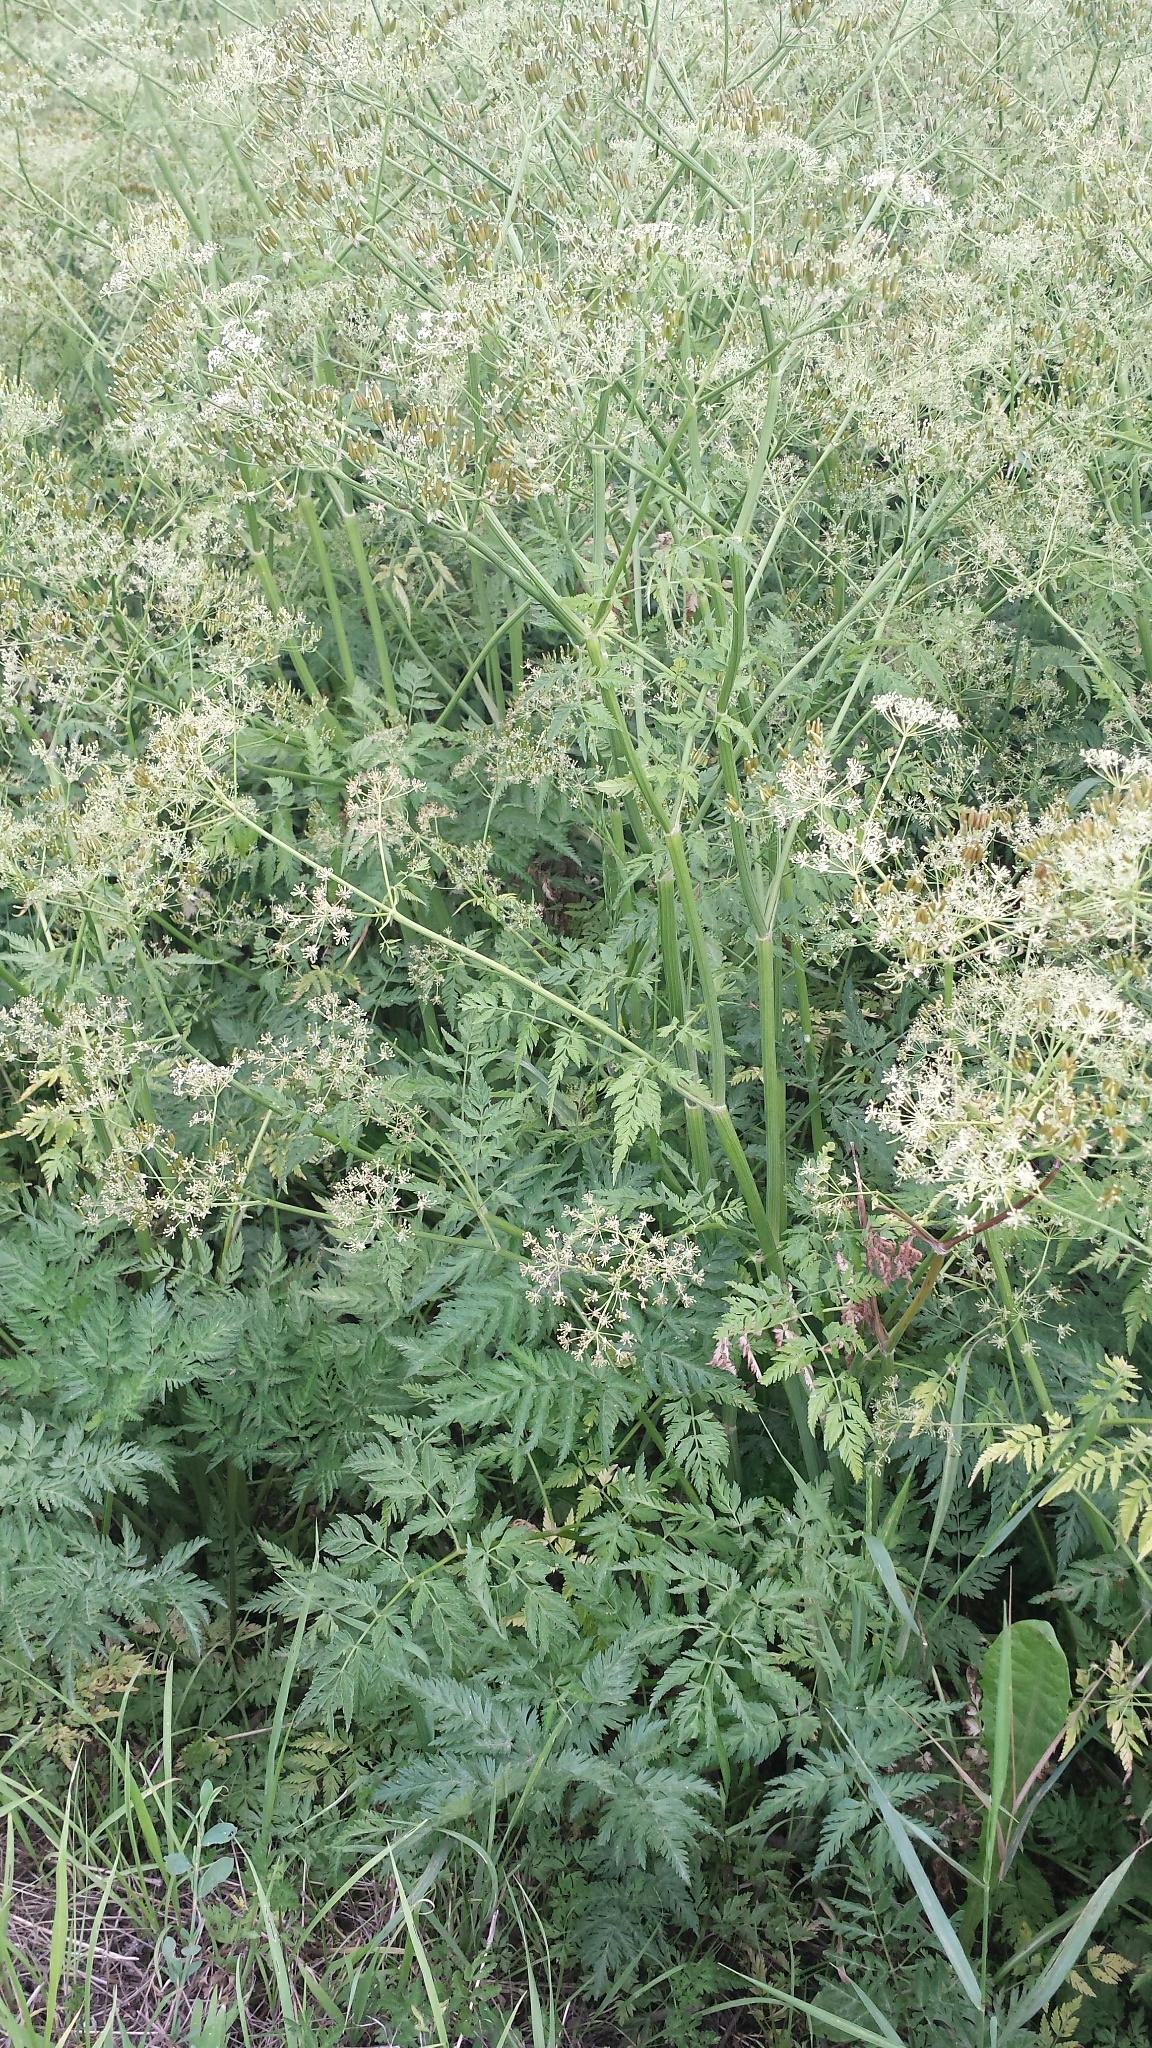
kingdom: Plantae
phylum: Tracheophyta
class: Magnoliopsida
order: Apiales
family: Apiaceae
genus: Anthriscus
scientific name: Anthriscus sylvestris
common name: Cow parsley
